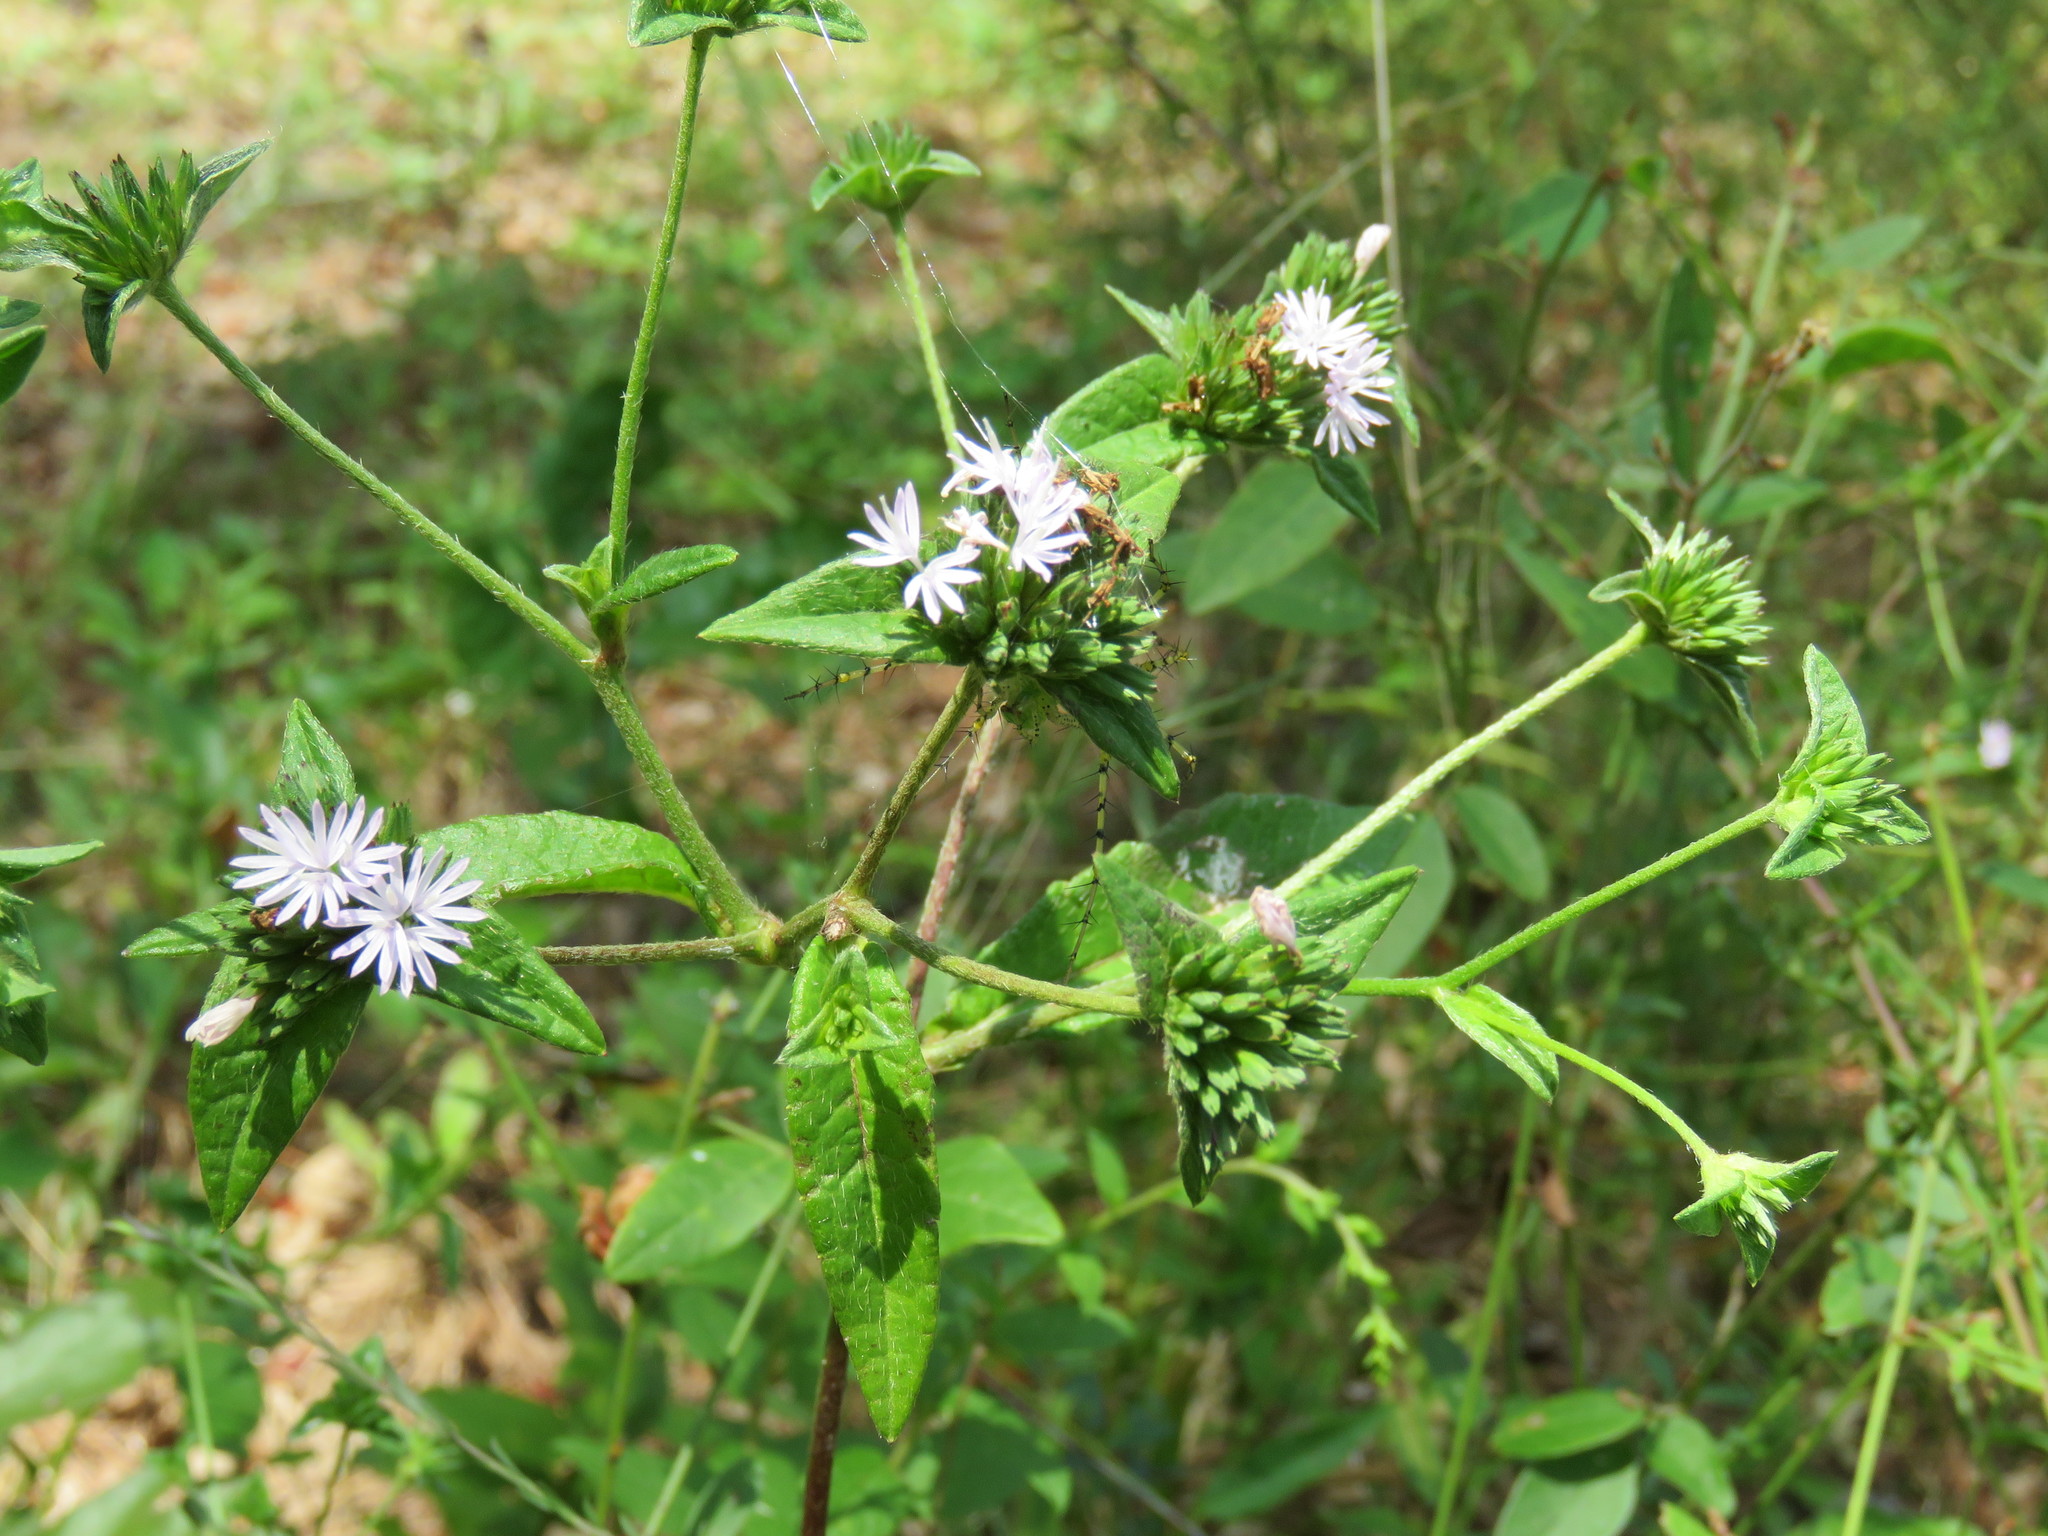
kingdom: Plantae
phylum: Tracheophyta
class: Magnoliopsida
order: Asterales
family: Asteraceae
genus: Elephantopus
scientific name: Elephantopus carolinianus
